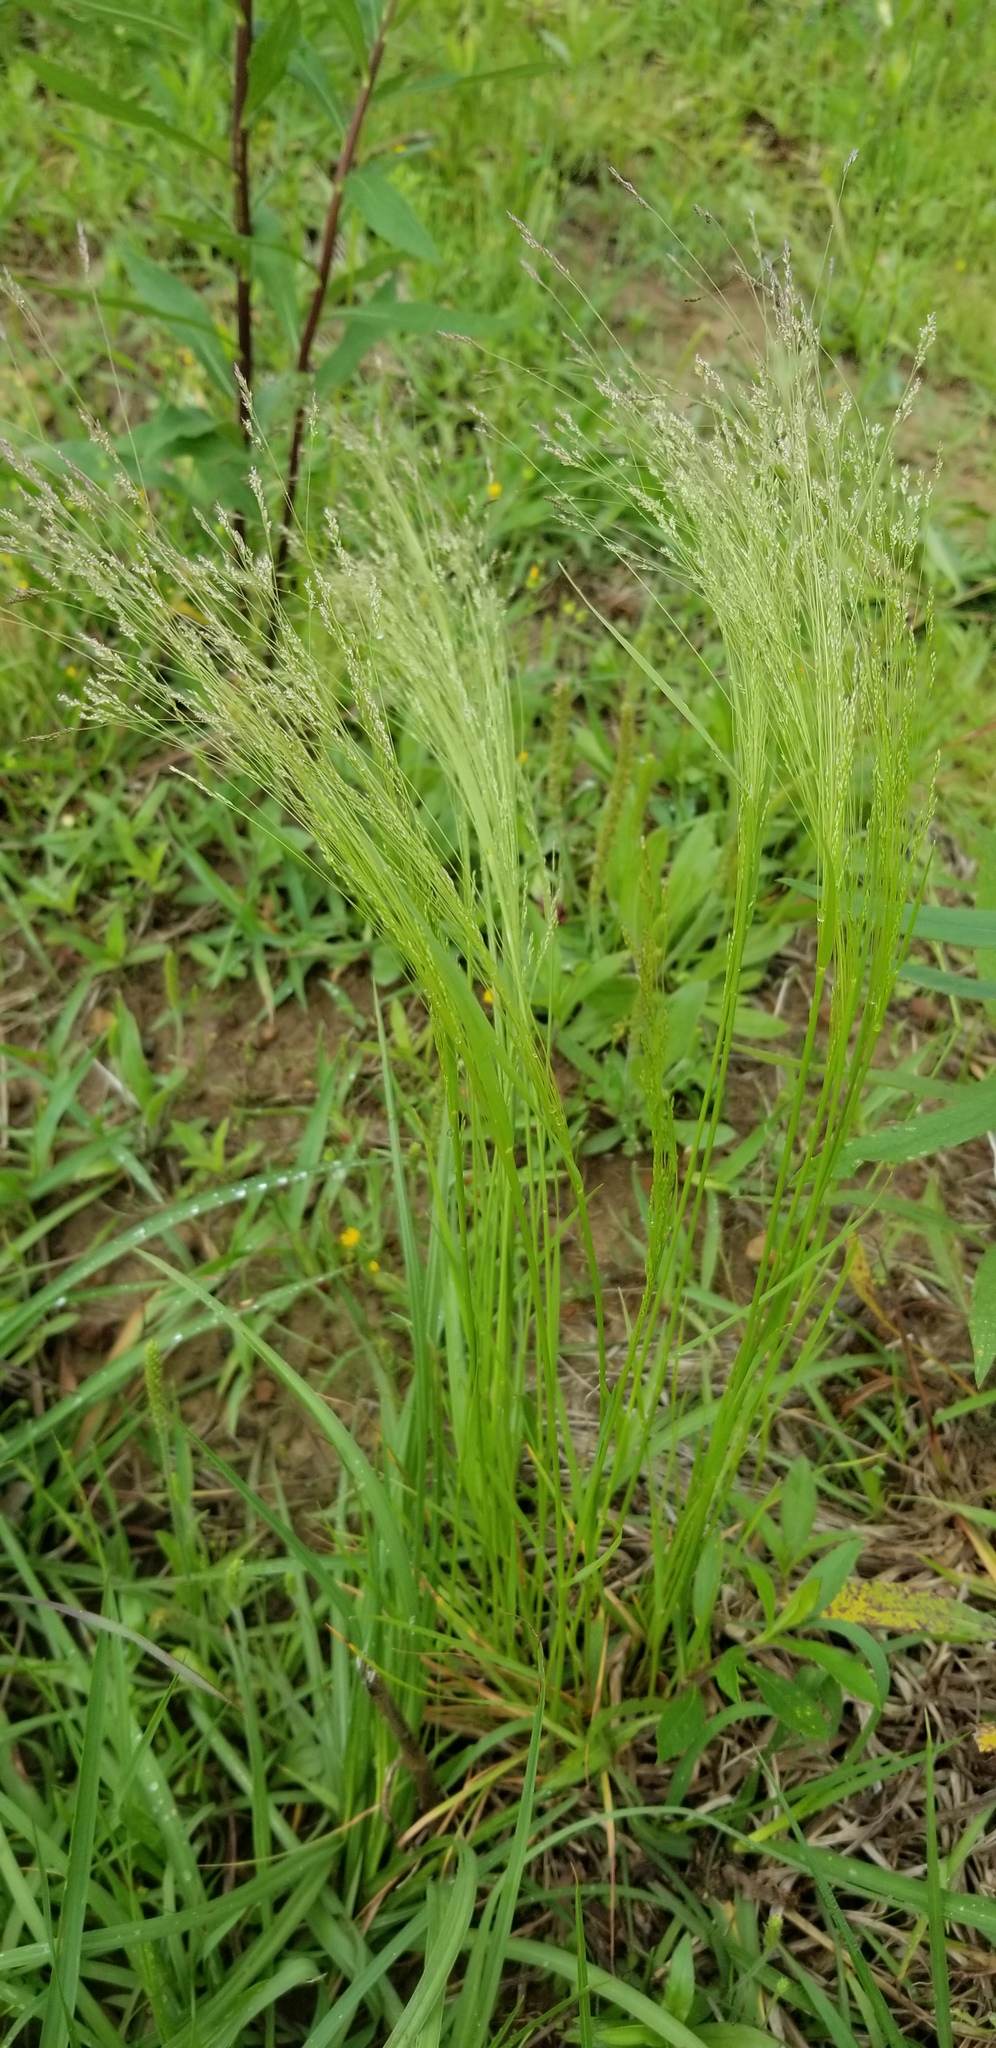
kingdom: Plantae
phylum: Tracheophyta
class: Liliopsida
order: Poales
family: Poaceae
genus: Agrostis
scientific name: Agrostis hyemalis
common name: Small bent
